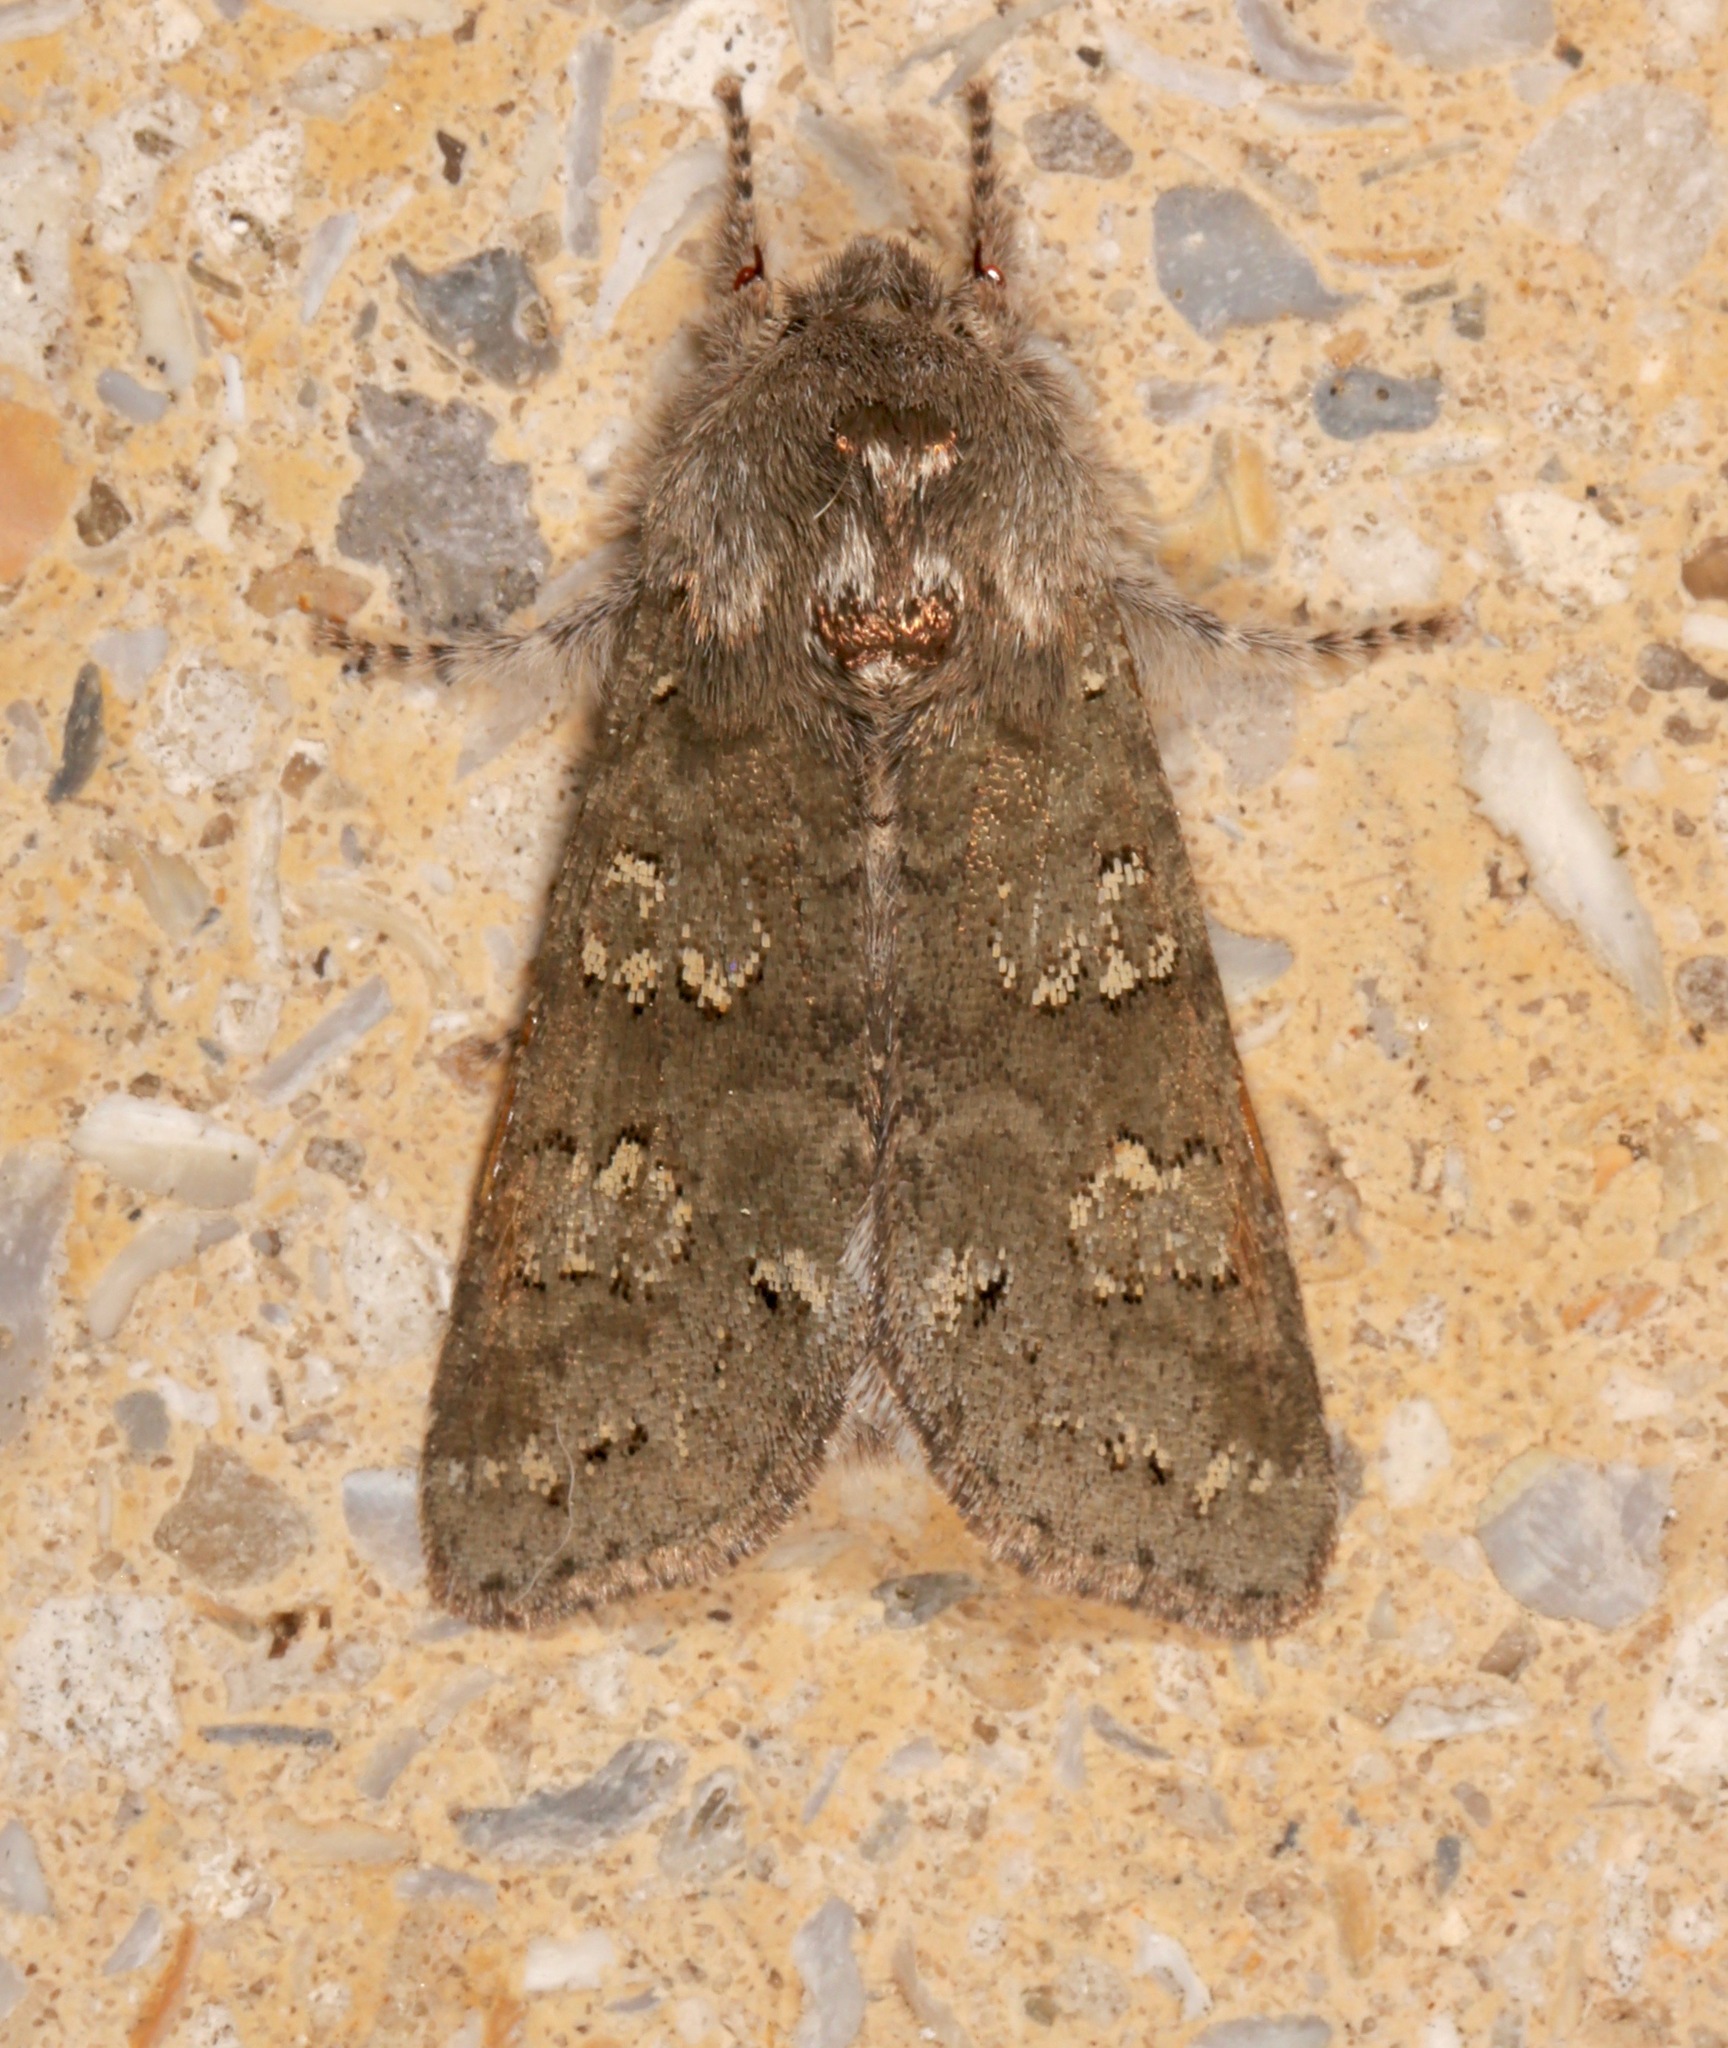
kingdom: Animalia
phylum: Arthropoda
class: Insecta
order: Lepidoptera
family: Noctuidae
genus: Psaphida
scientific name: Psaphida rolandi
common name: Roland's sallow
